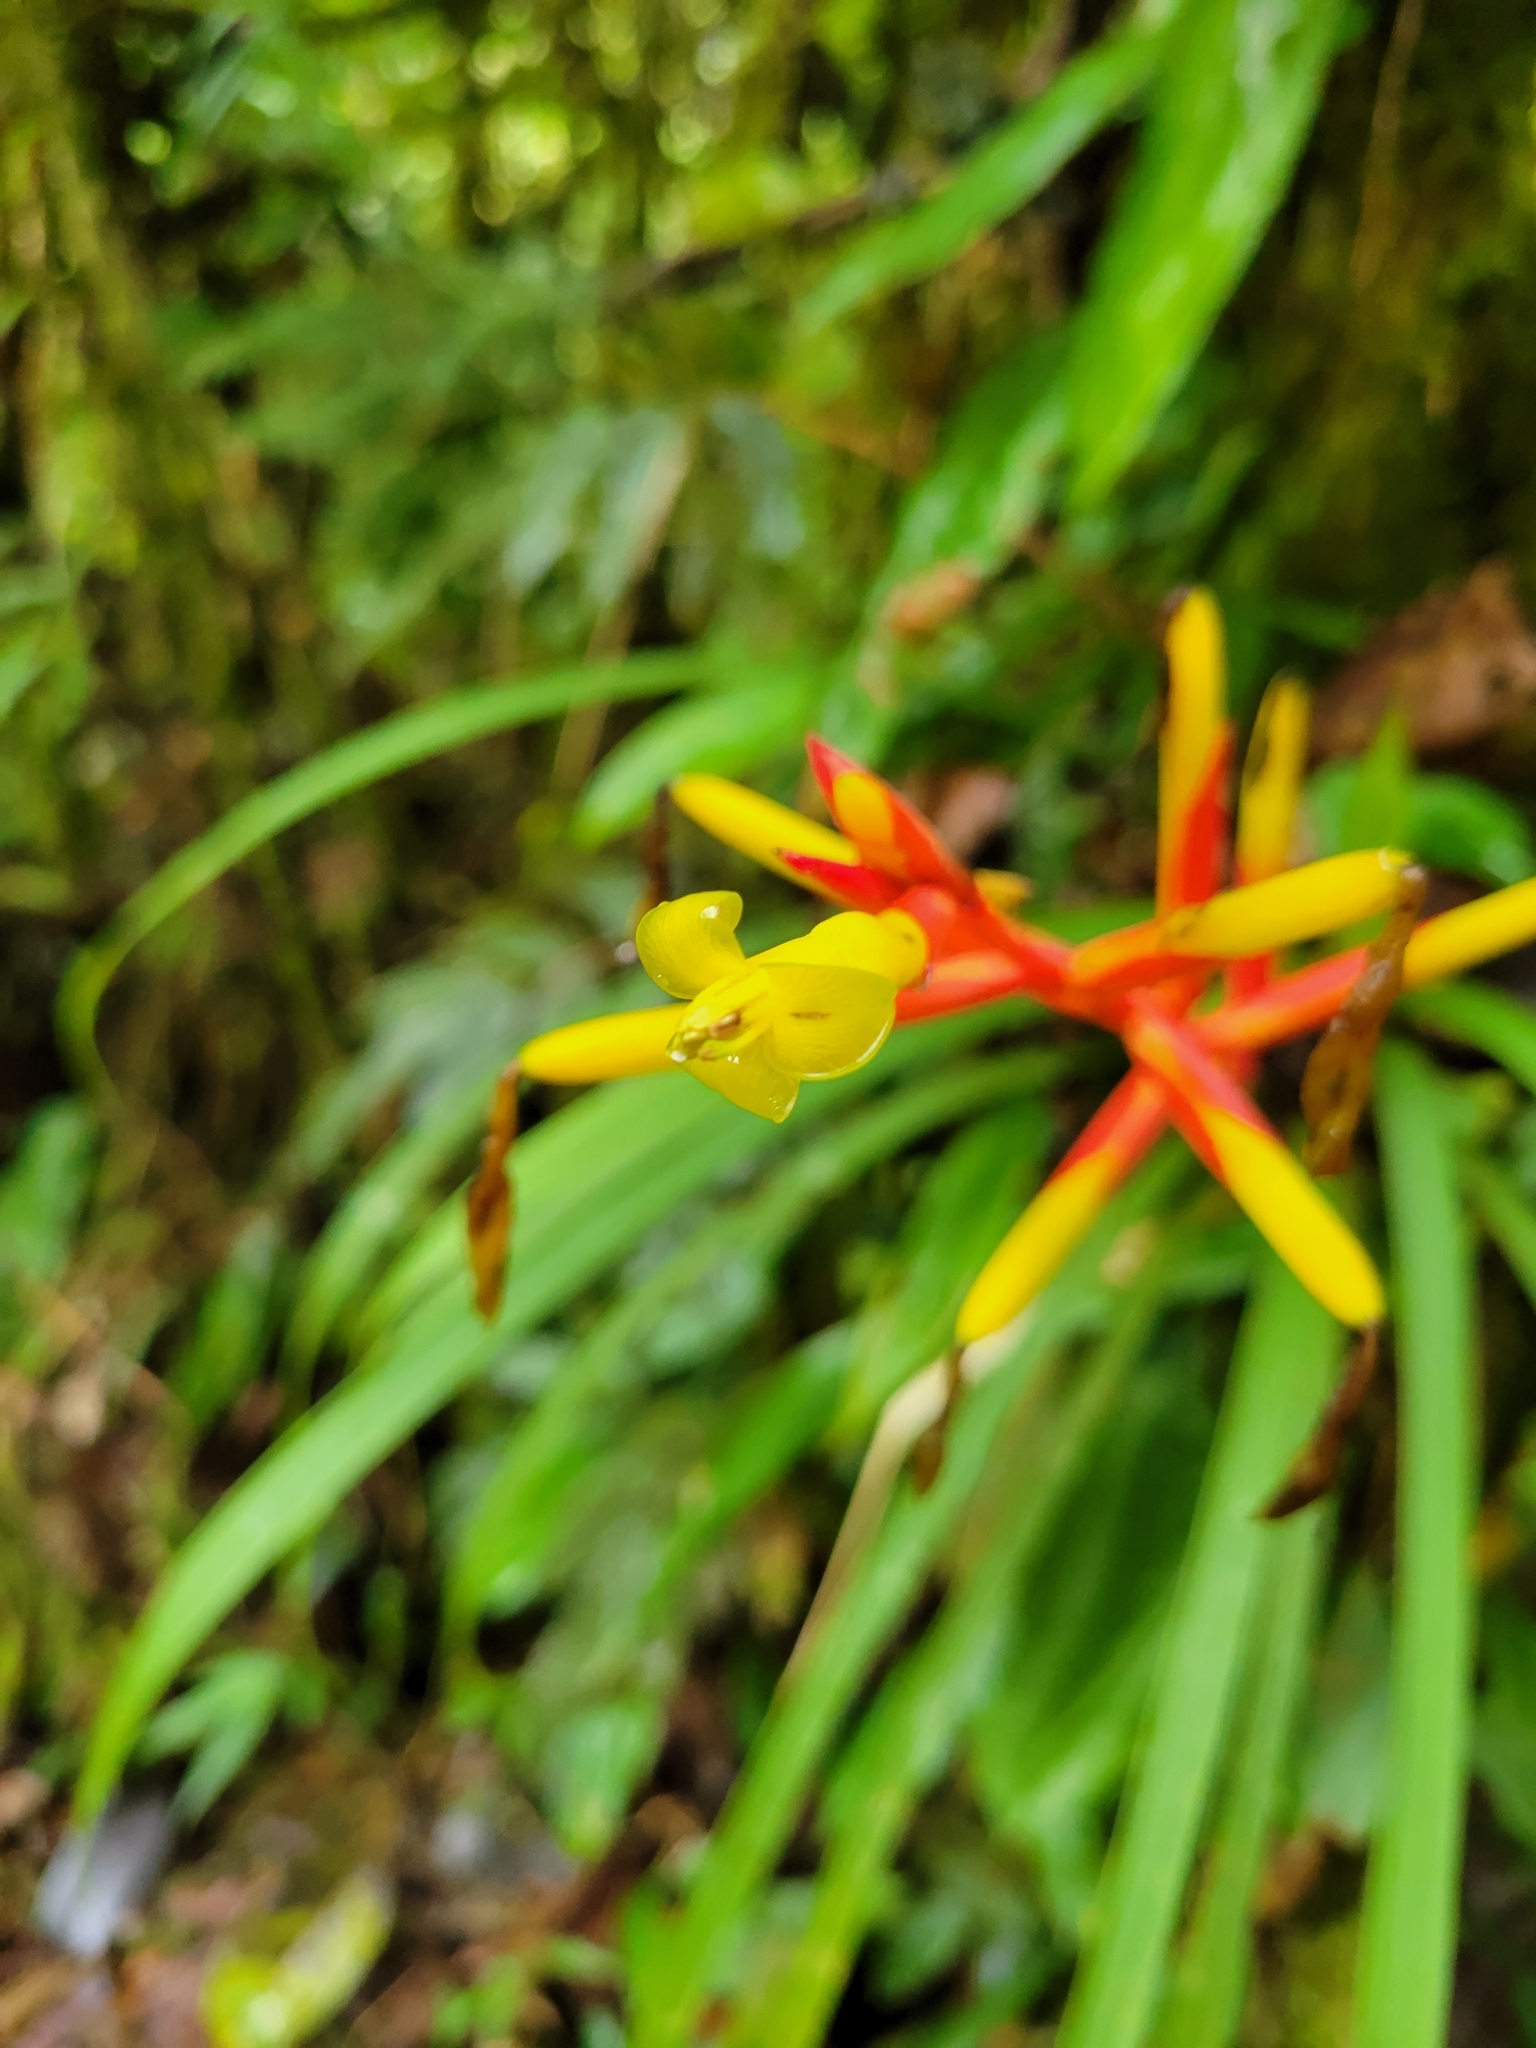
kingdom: Plantae
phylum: Tracheophyta
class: Liliopsida
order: Poales
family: Bromeliaceae
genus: Guzmania
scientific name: Guzmania sprucei
